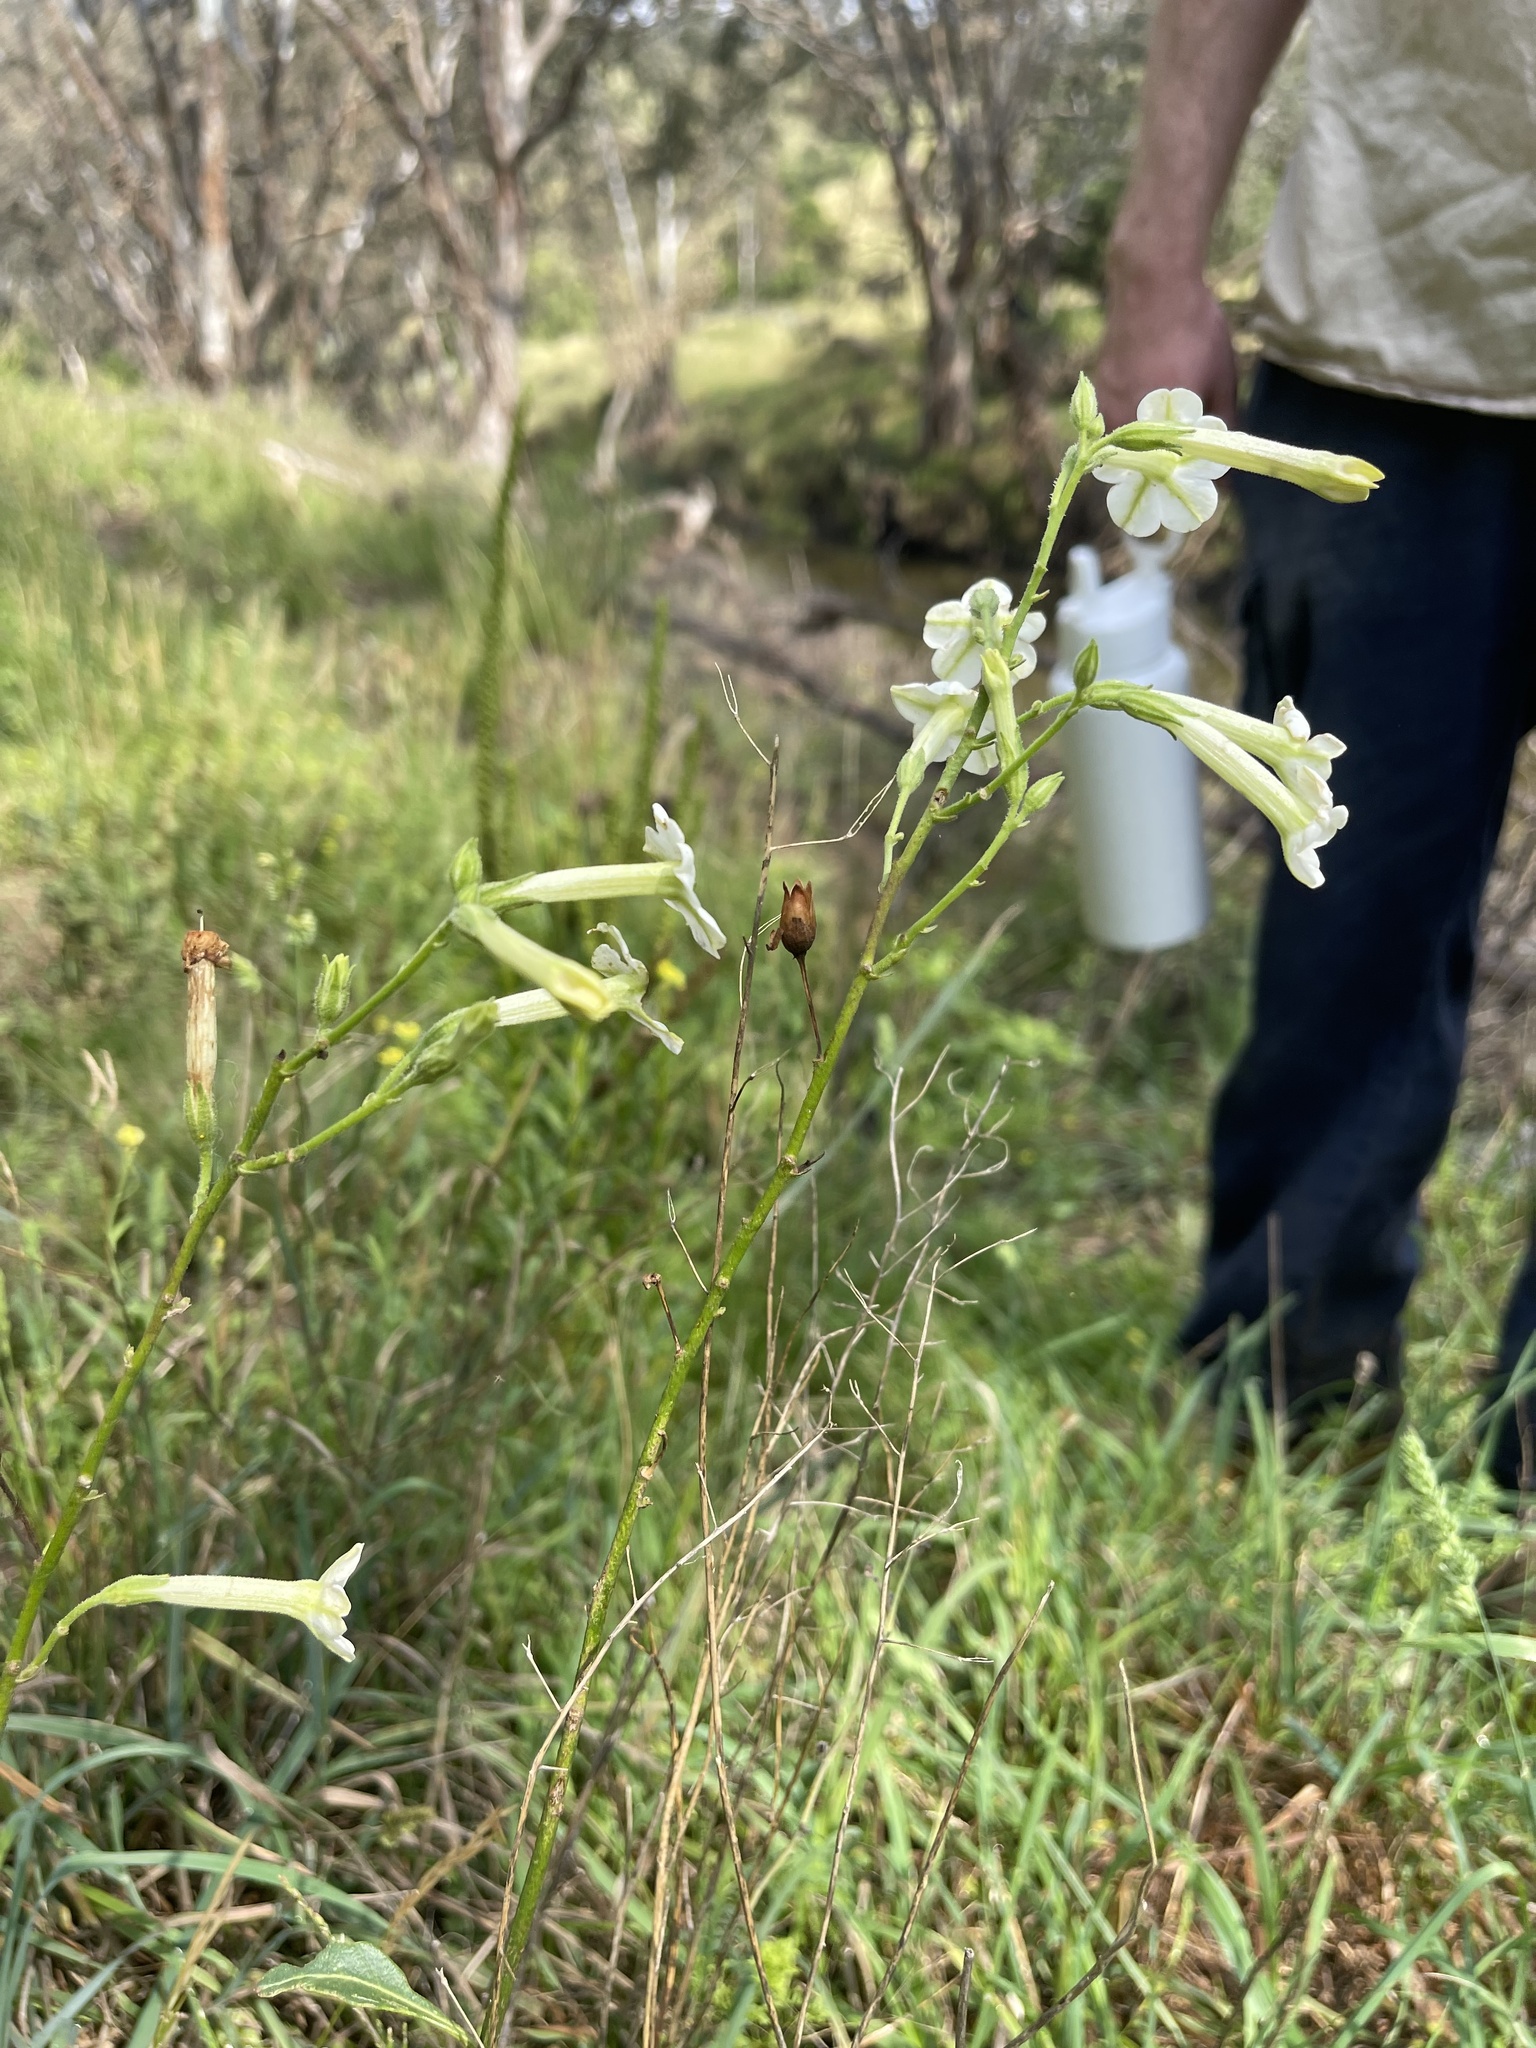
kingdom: Plantae
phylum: Tracheophyta
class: Magnoliopsida
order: Solanales
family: Solanaceae
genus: Nicotiana
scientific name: Nicotiana suaveolens
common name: Australian tobacco
